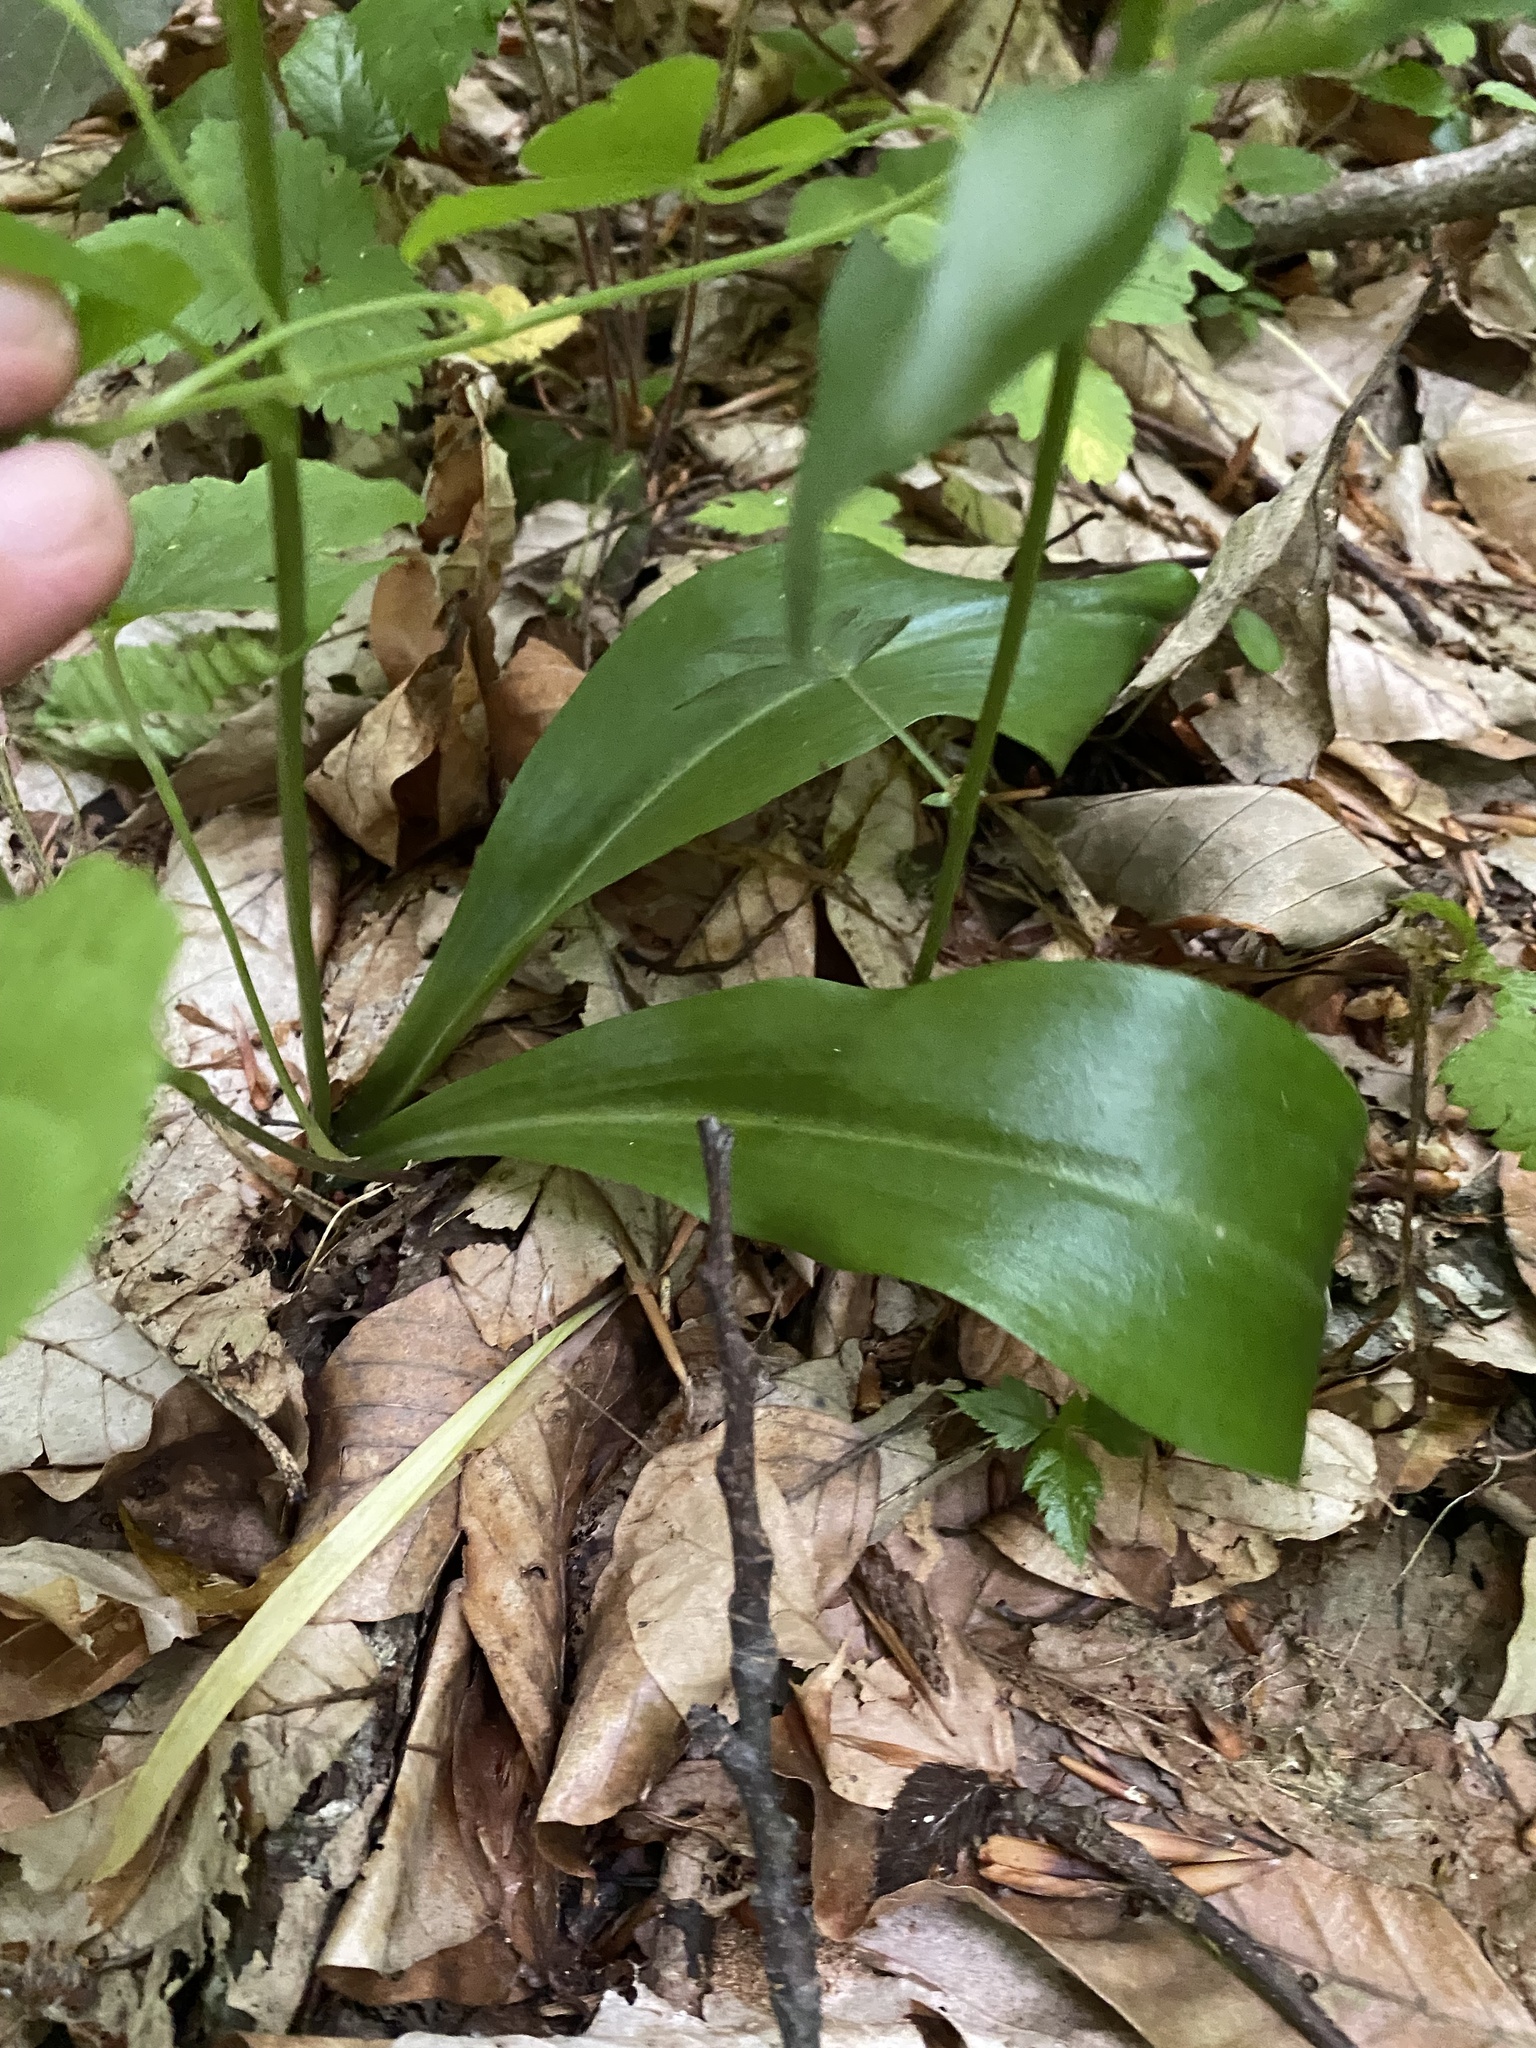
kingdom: Plantae
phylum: Tracheophyta
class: Liliopsida
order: Asparagales
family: Orchidaceae
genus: Platanthera
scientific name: Platanthera chlorantha
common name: Greater butterfly-orchid
